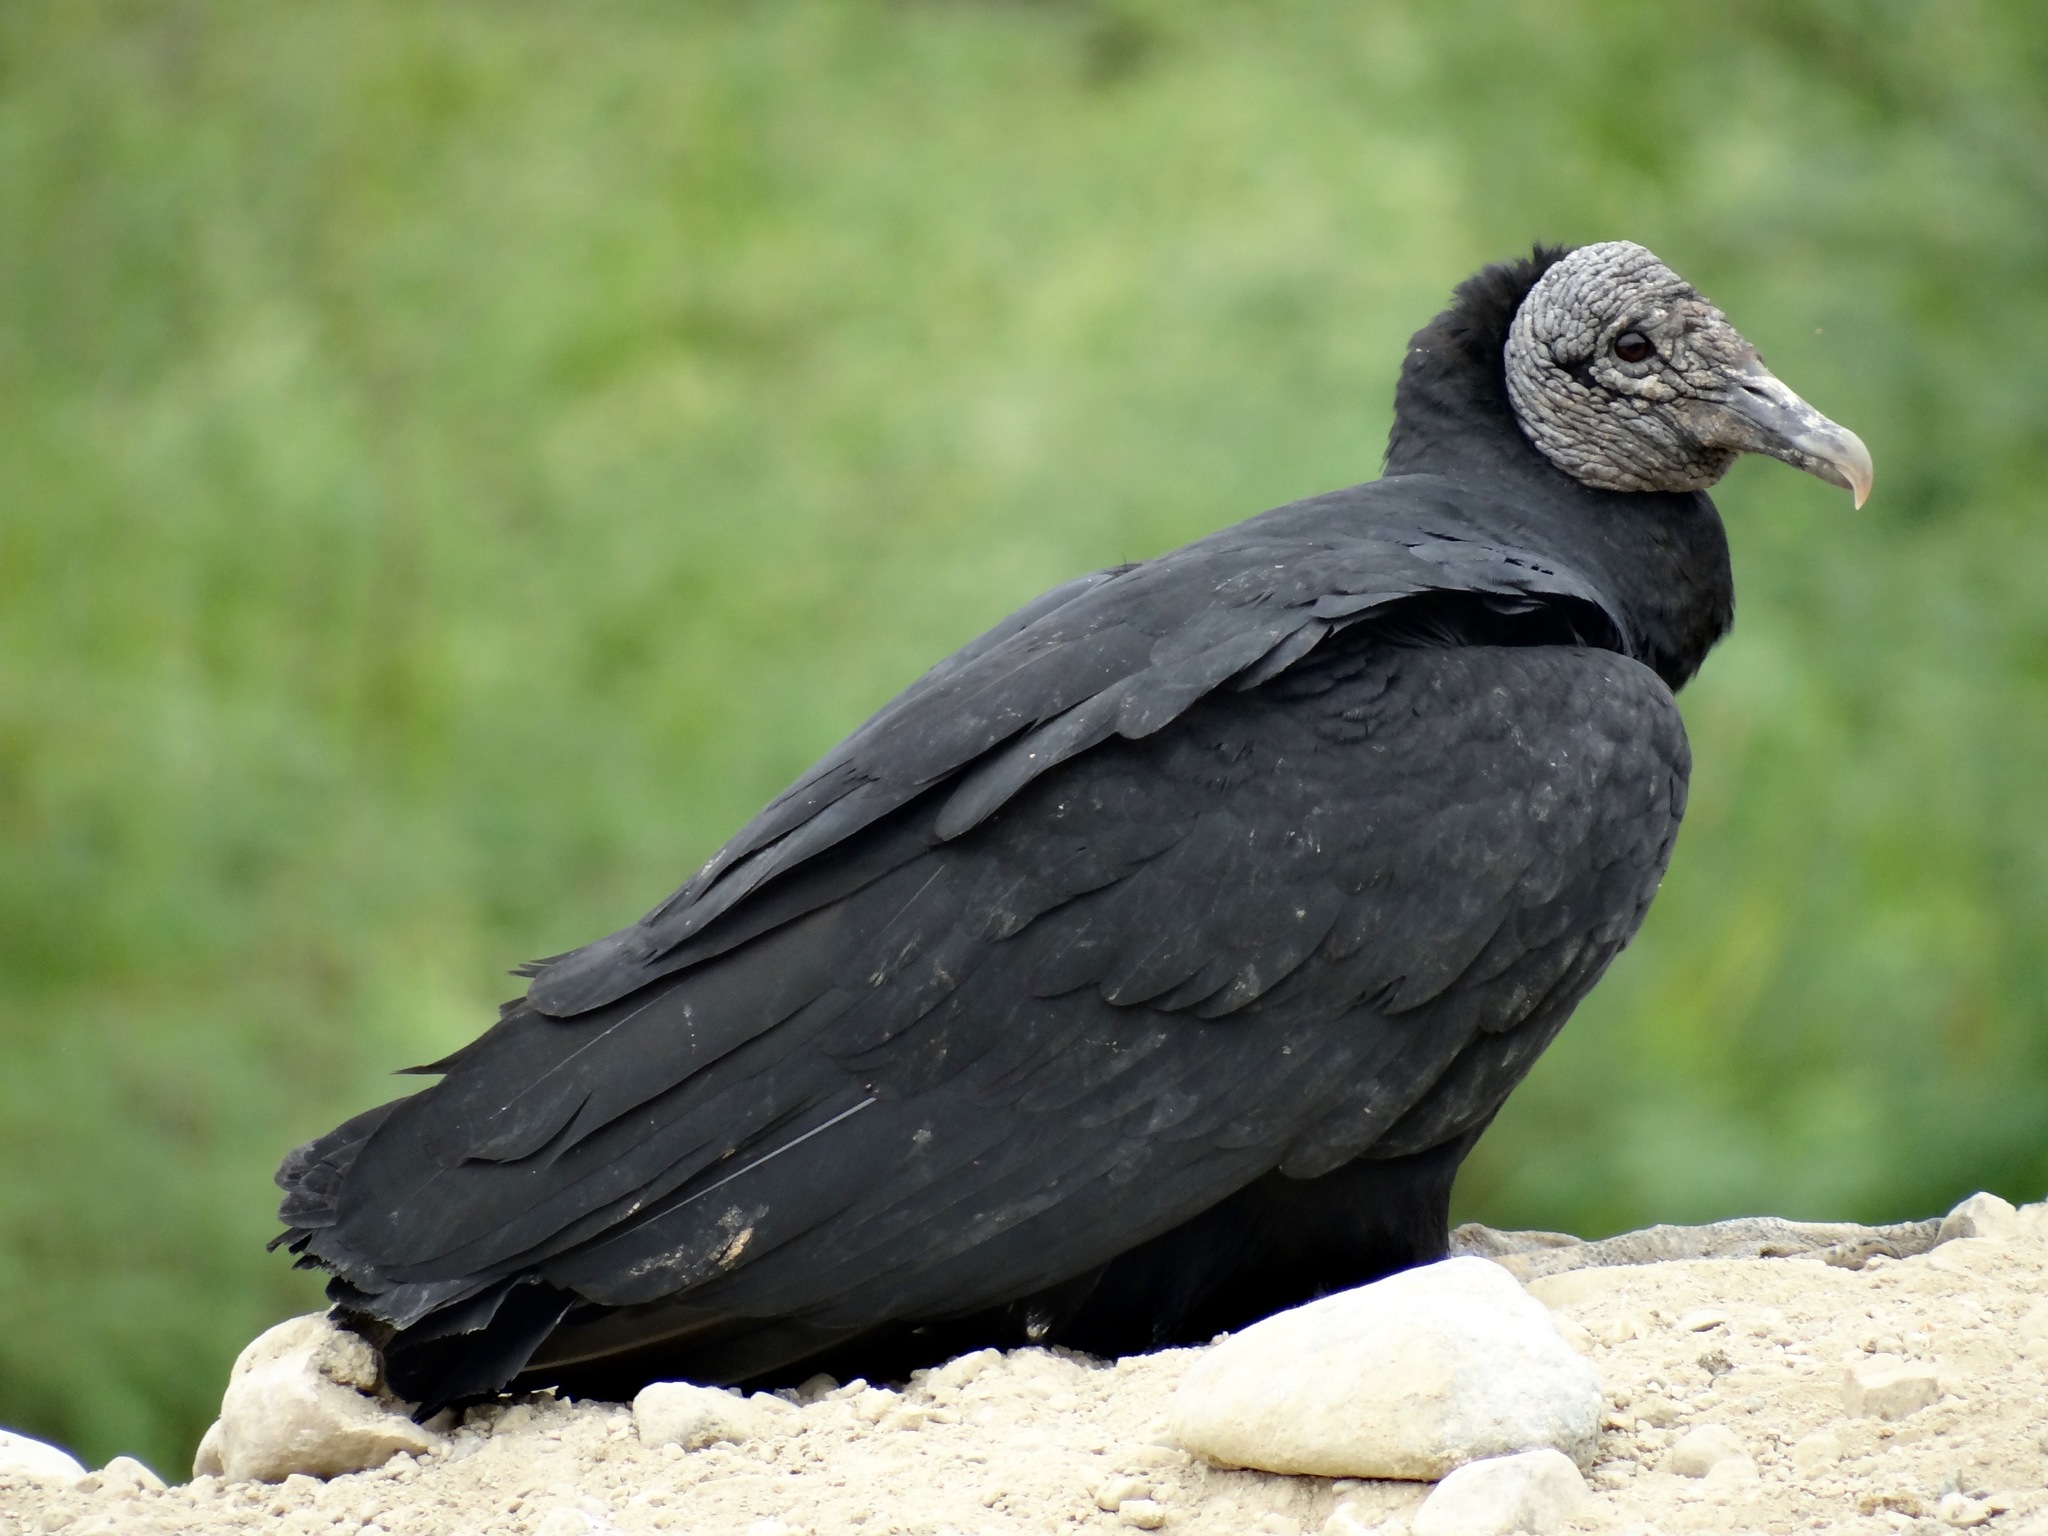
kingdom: Animalia
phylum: Chordata
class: Aves
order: Accipitriformes
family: Cathartidae
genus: Coragyps
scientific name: Coragyps atratus
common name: Black vulture
